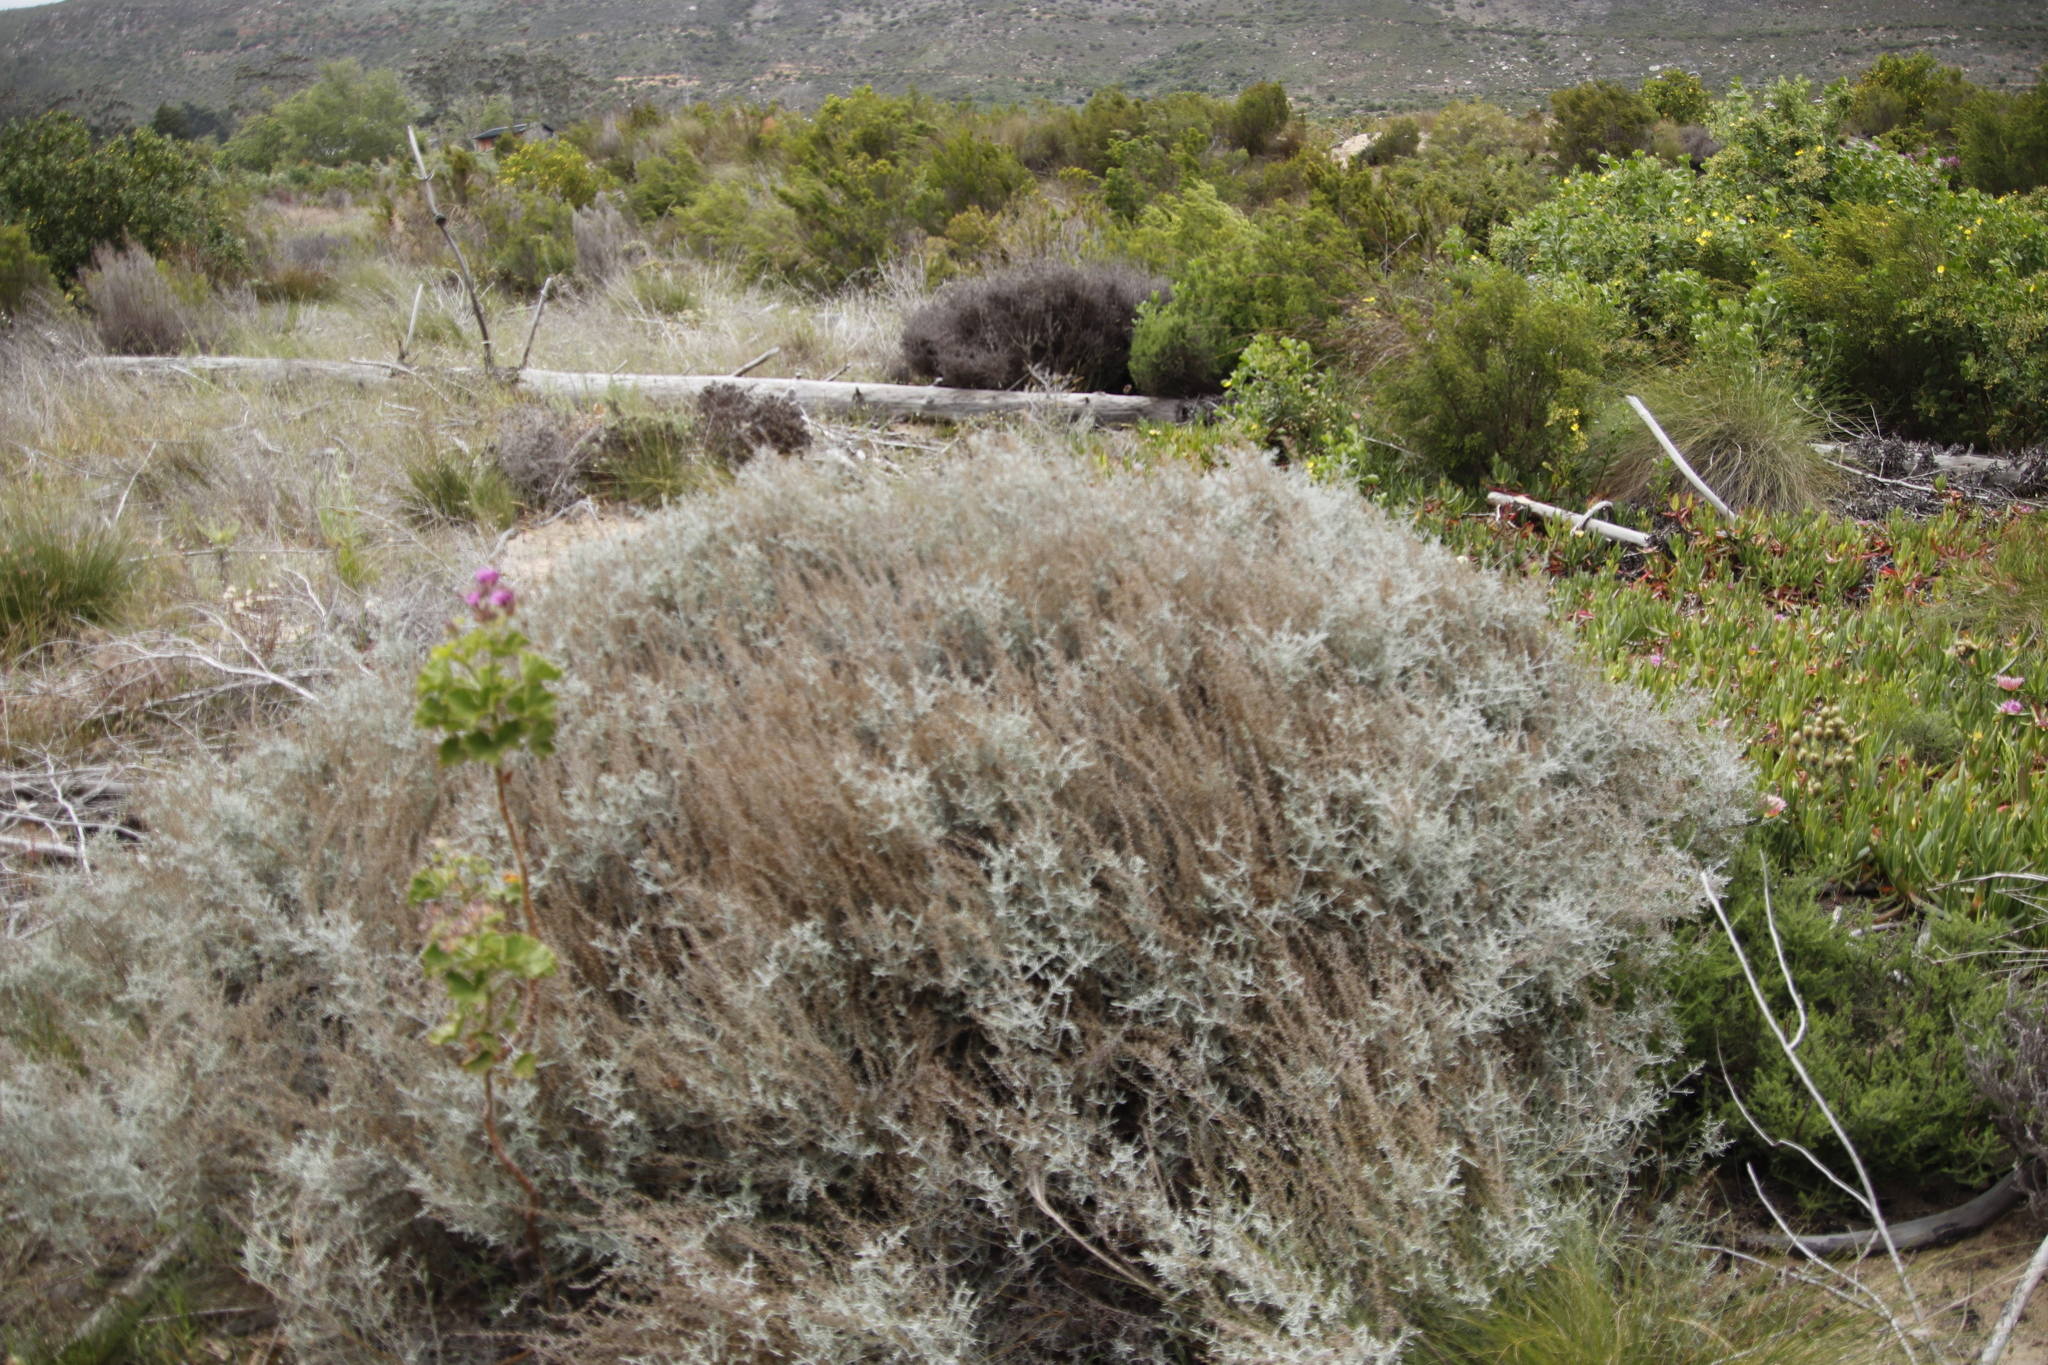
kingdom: Plantae
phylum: Tracheophyta
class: Magnoliopsida
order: Asterales
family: Asteraceae
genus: Seriphium
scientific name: Seriphium plumosum
